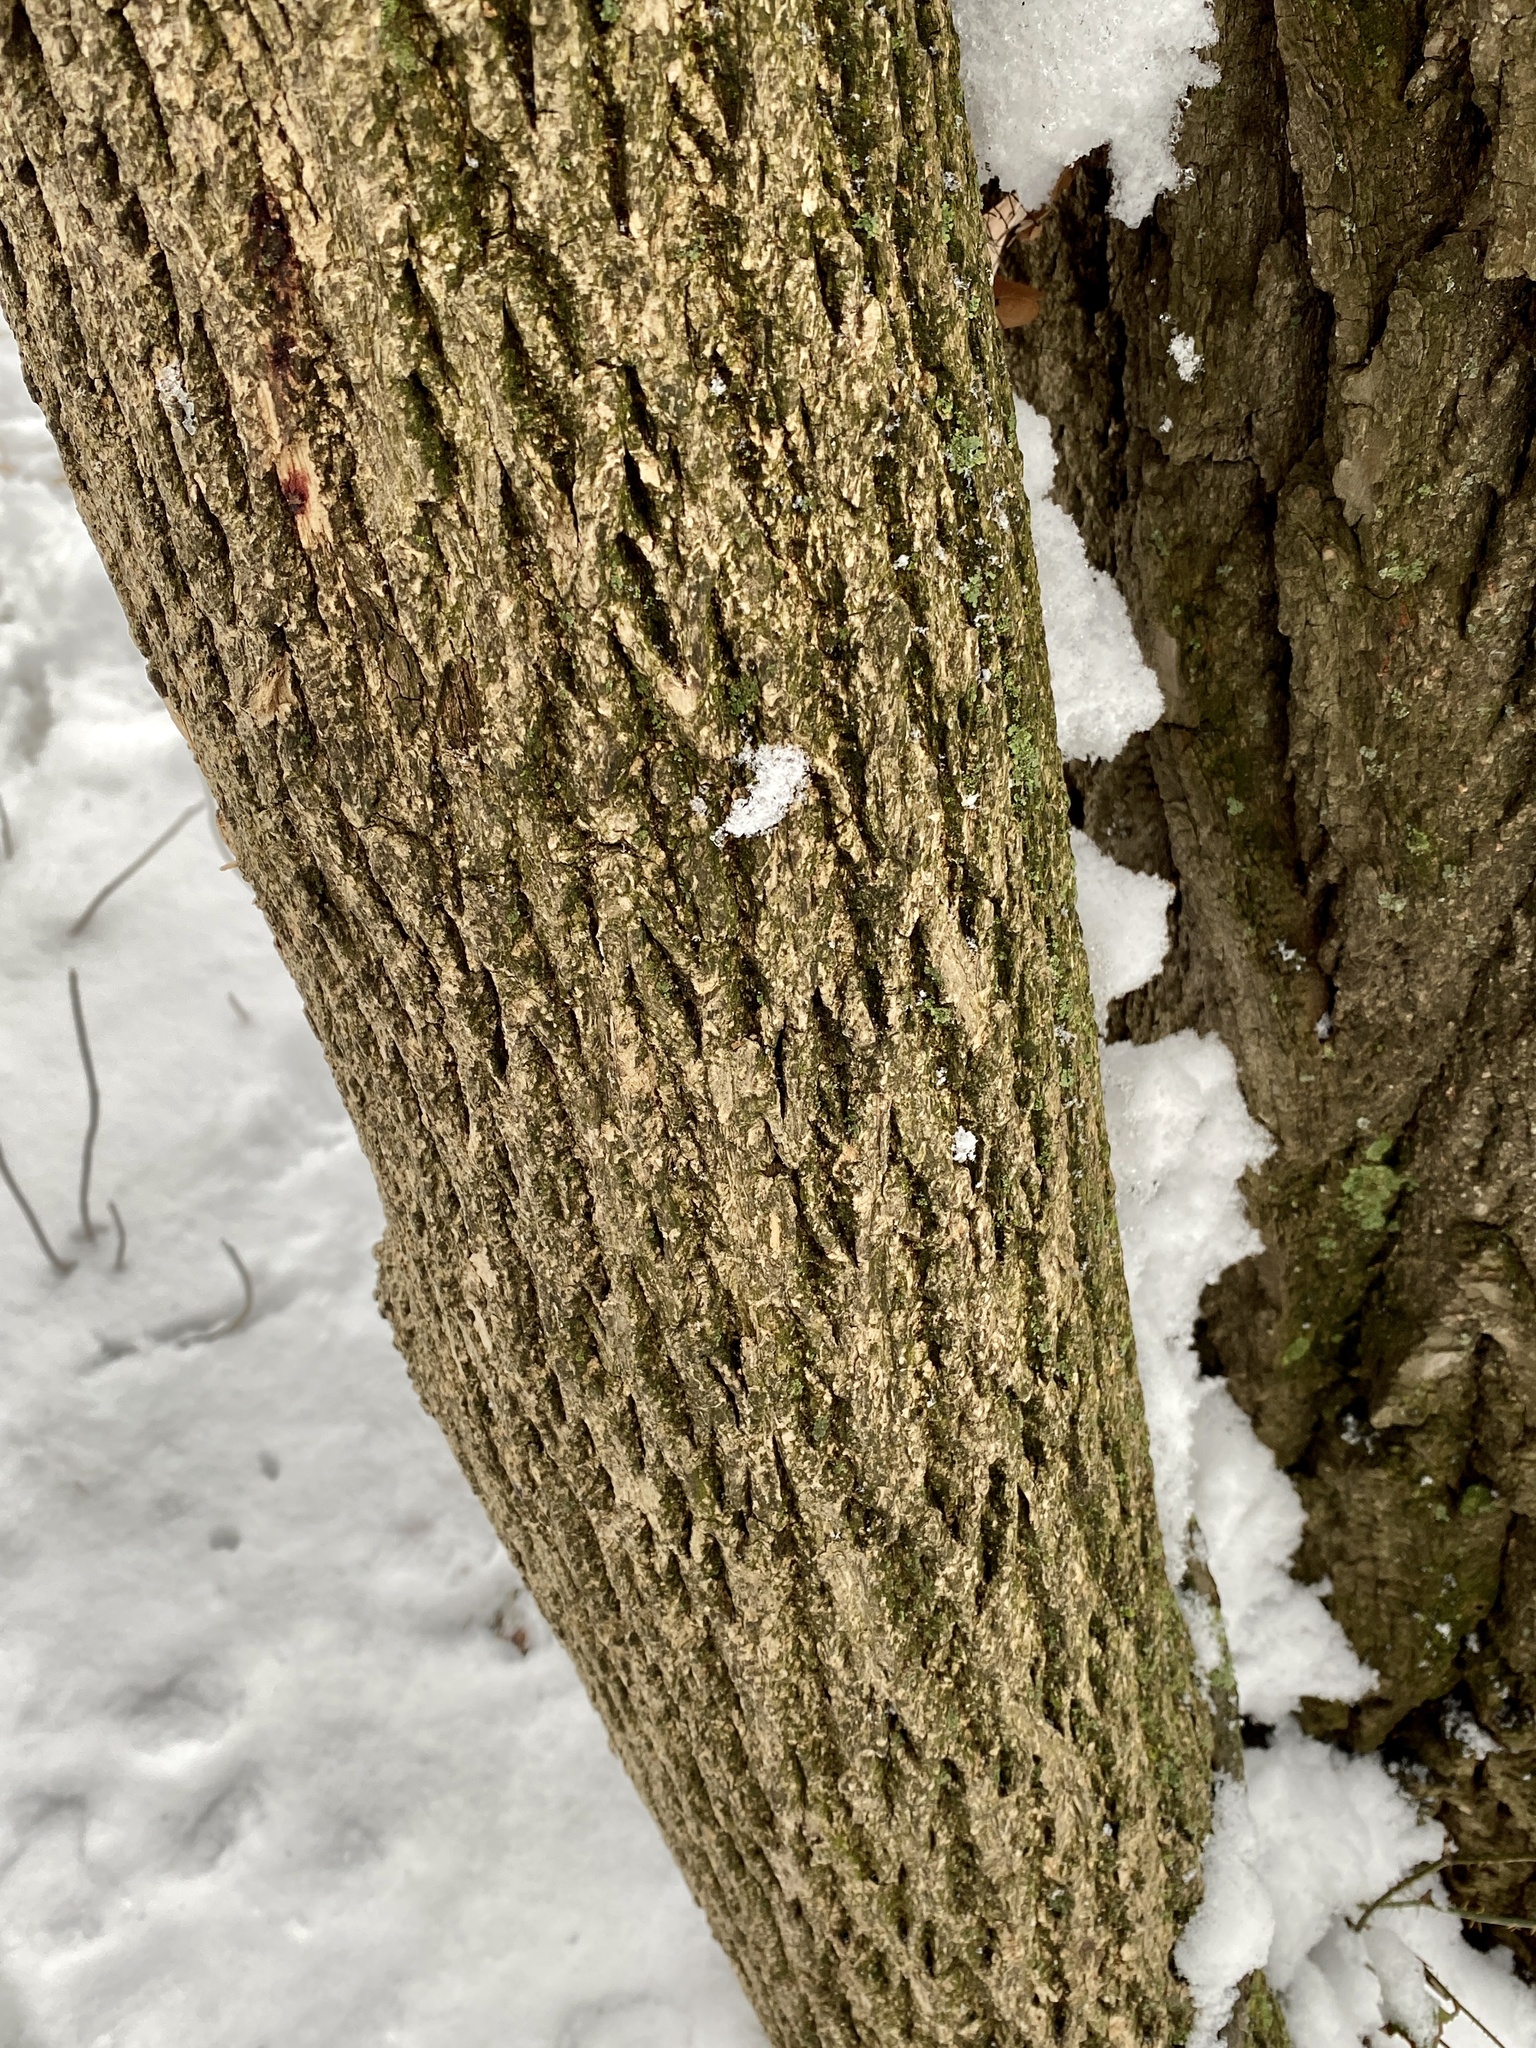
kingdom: Animalia
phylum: Arthropoda
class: Insecta
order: Coleoptera
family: Buprestidae
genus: Agrilus
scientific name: Agrilus planipennis
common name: Emerald ash borer
